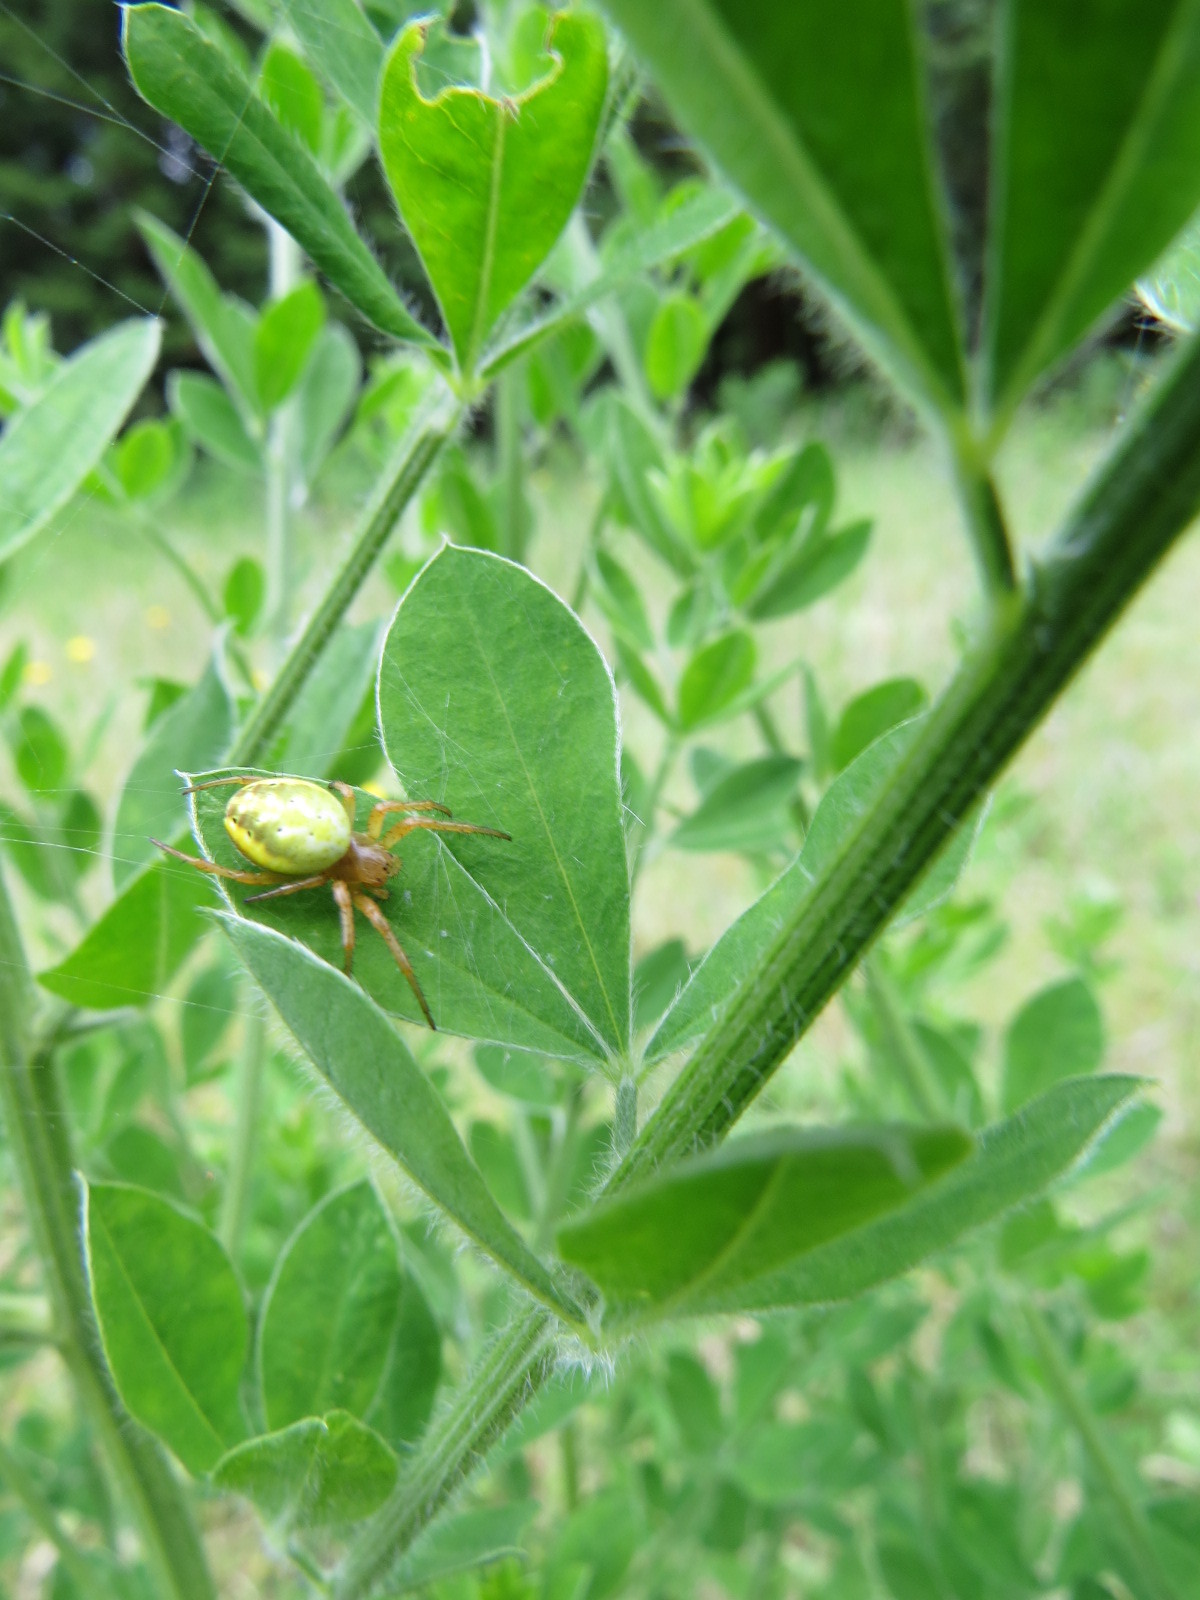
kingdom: Animalia
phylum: Arthropoda
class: Arachnida
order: Araneae
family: Araneidae
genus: Araniella
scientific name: Araniella displicata
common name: Sixspotted orb weaver
